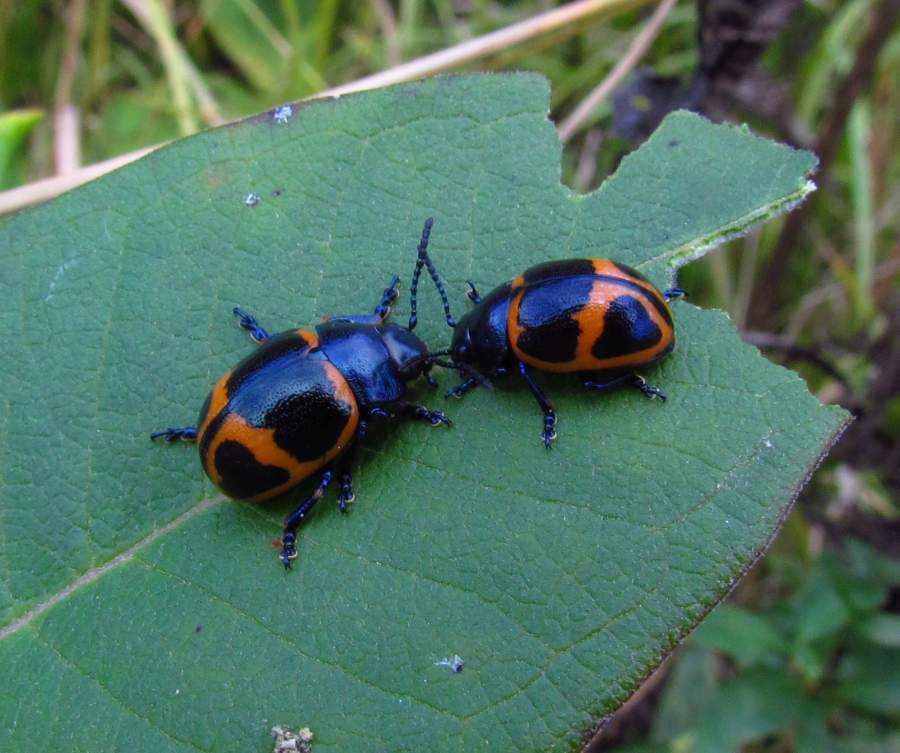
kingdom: Animalia
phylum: Arthropoda
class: Insecta
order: Coleoptera
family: Chrysomelidae
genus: Labidomera
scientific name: Labidomera clivicollis
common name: Swamp milkweed leaf beetle
